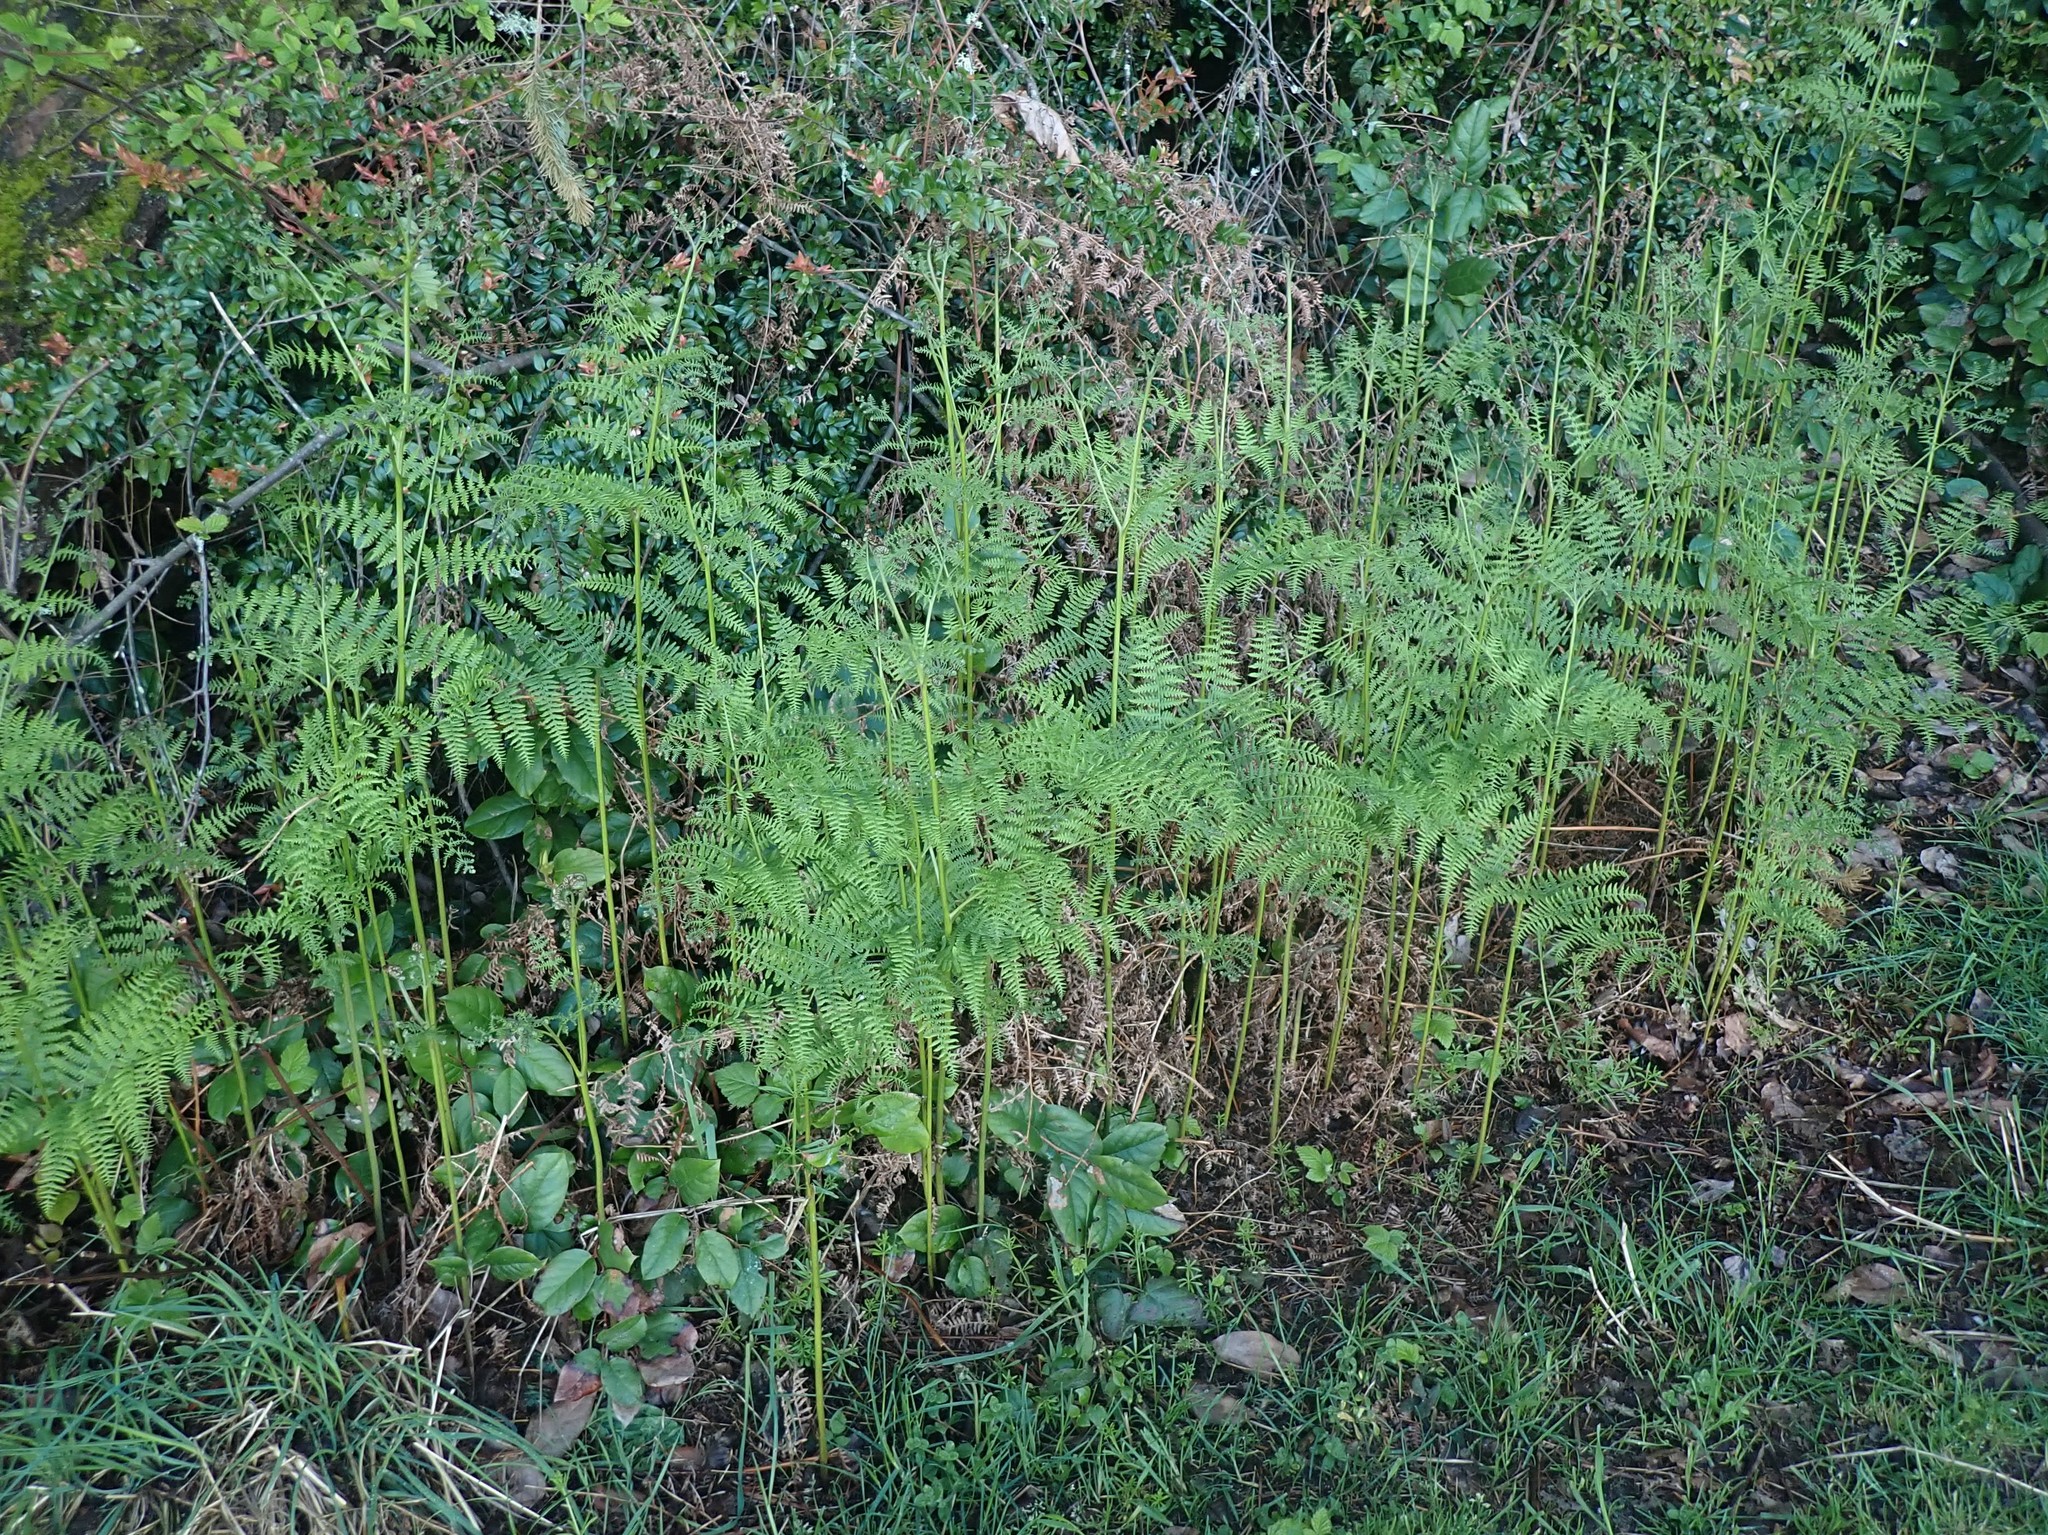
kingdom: Plantae
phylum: Tracheophyta
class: Polypodiopsida
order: Polypodiales
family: Dennstaedtiaceae
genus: Pteridium
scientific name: Pteridium aquilinum
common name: Bracken
